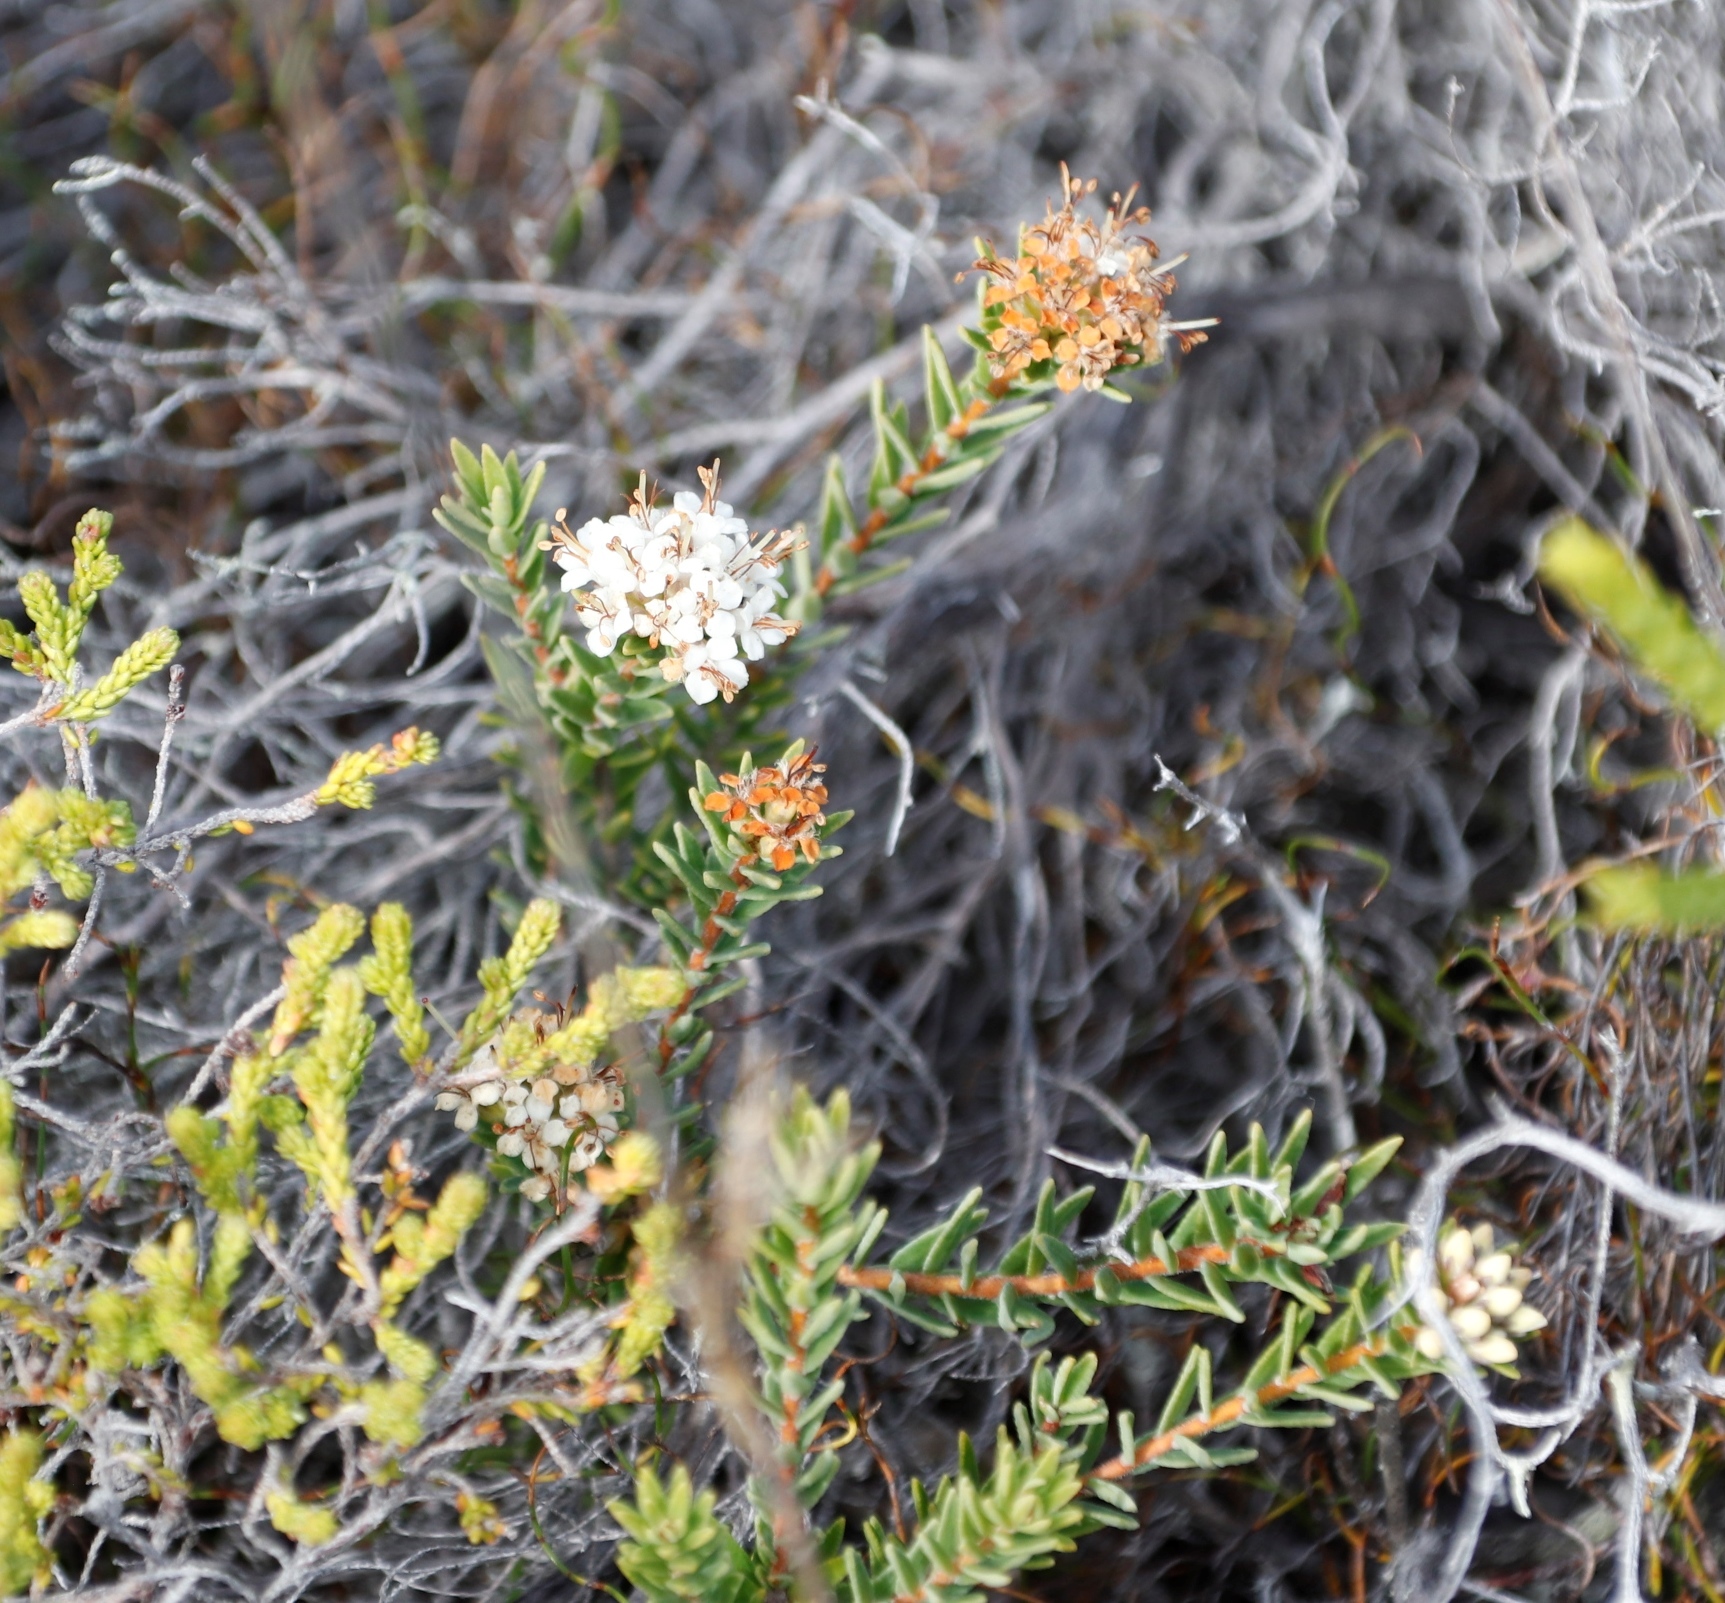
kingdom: Plantae
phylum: Tracheophyta
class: Magnoliopsida
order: Sapindales
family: Rutaceae
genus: Macrostylis
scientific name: Macrostylis villosa
